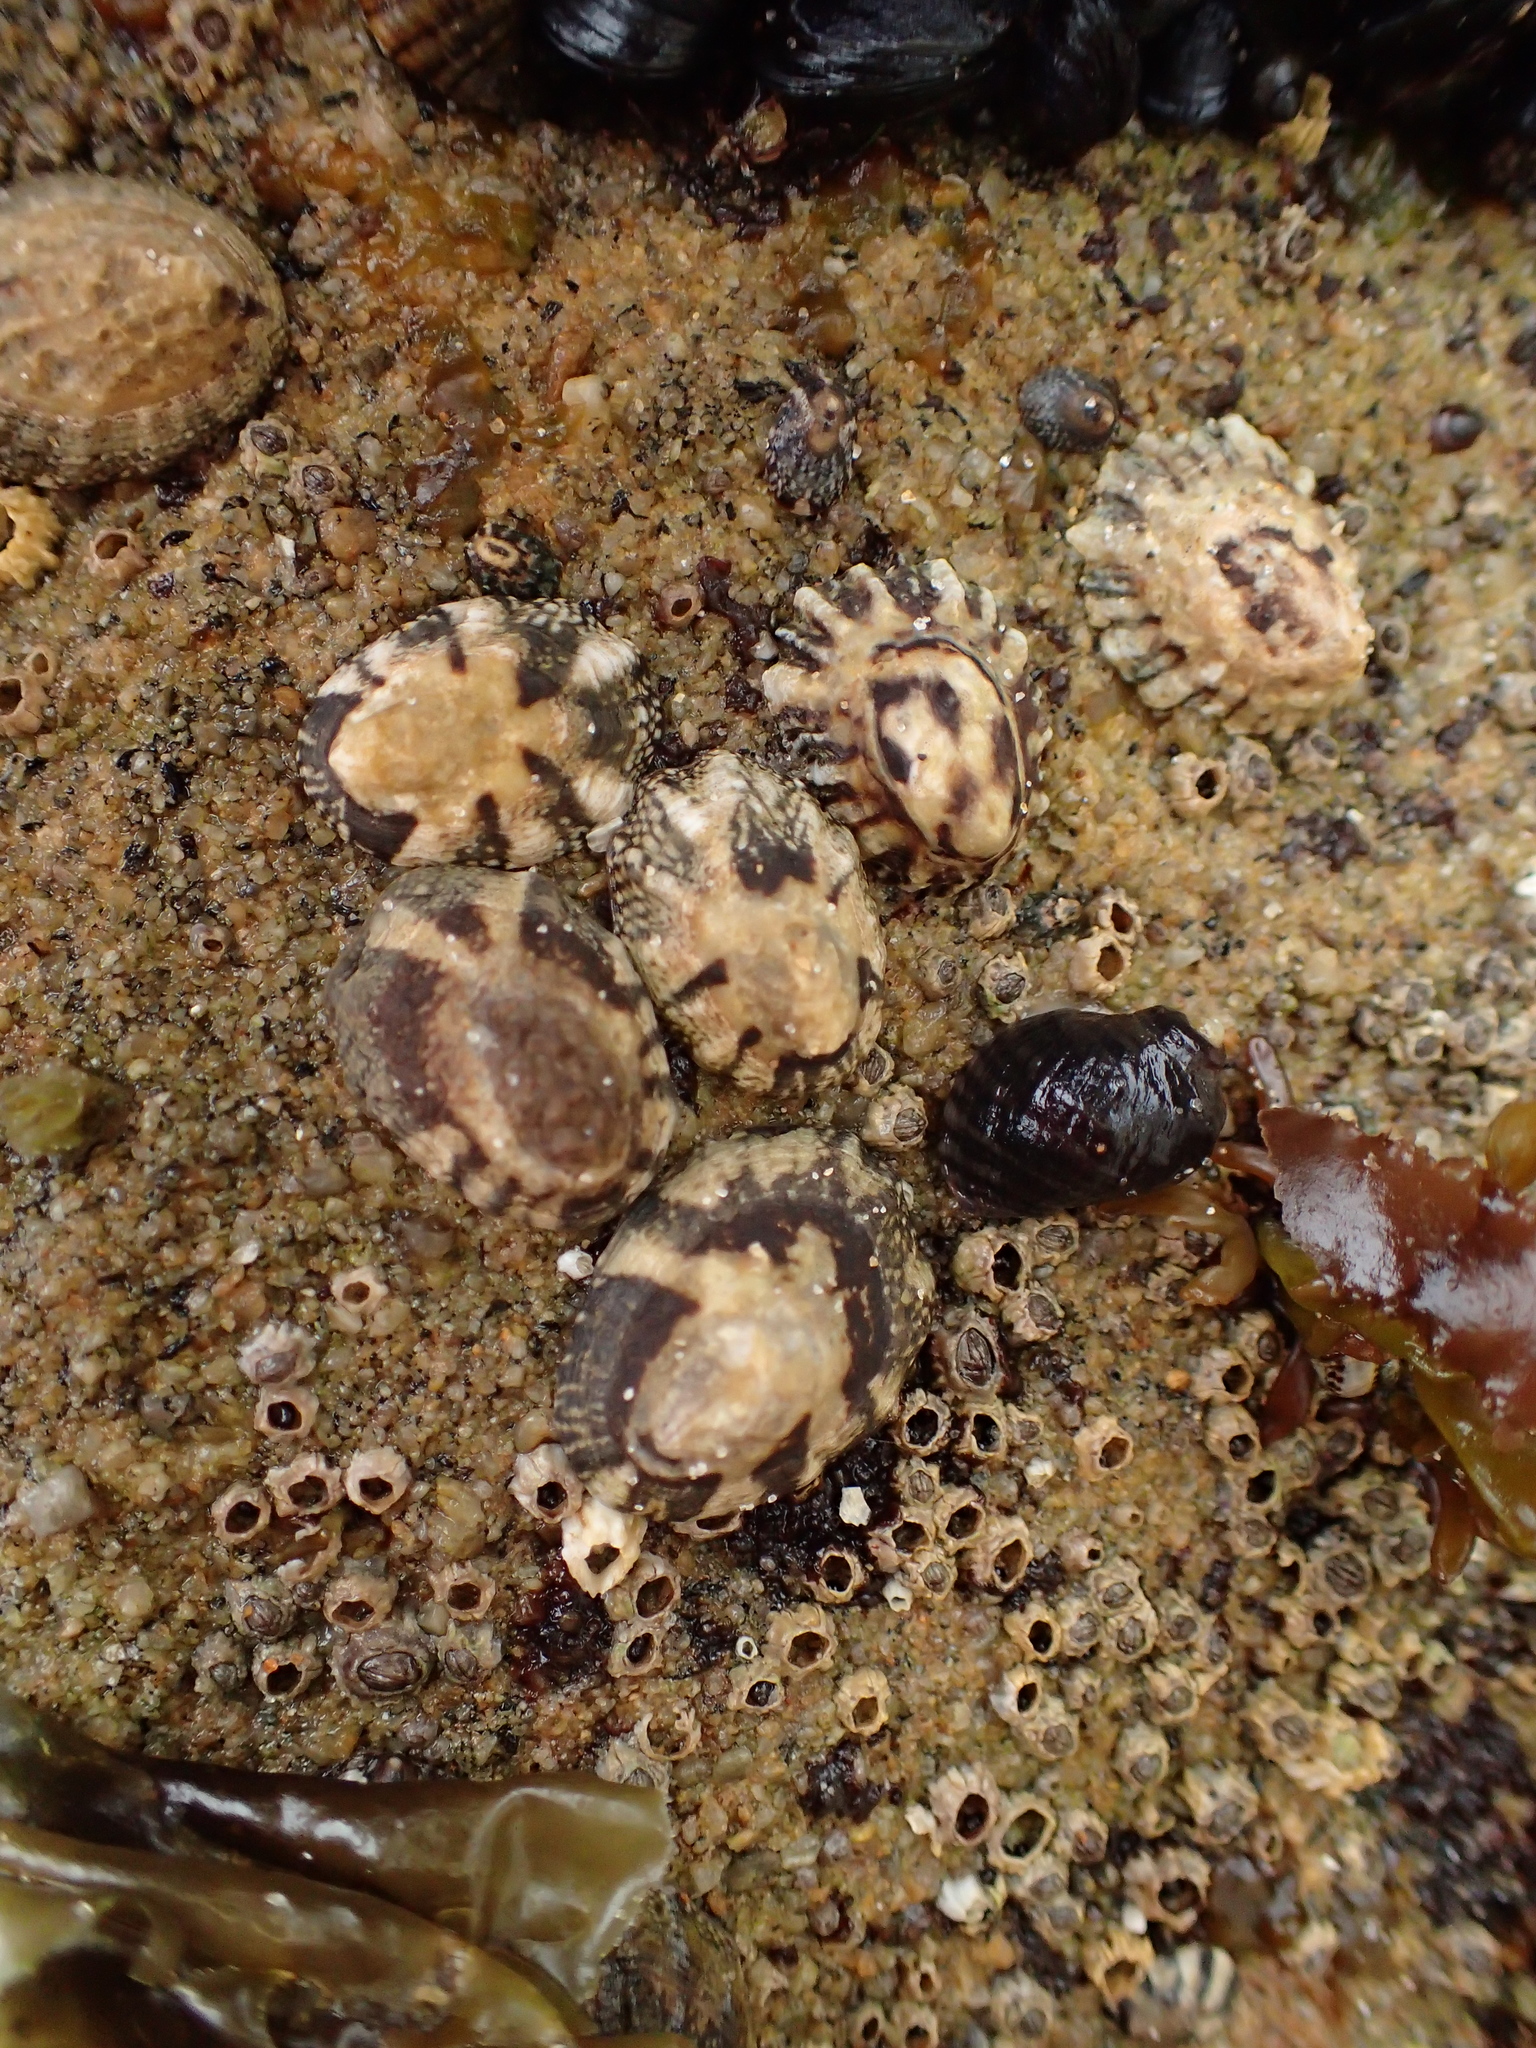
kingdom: Animalia
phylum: Mollusca
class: Gastropoda
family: Lottiidae
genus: Lottia
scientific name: Lottia digitalis
